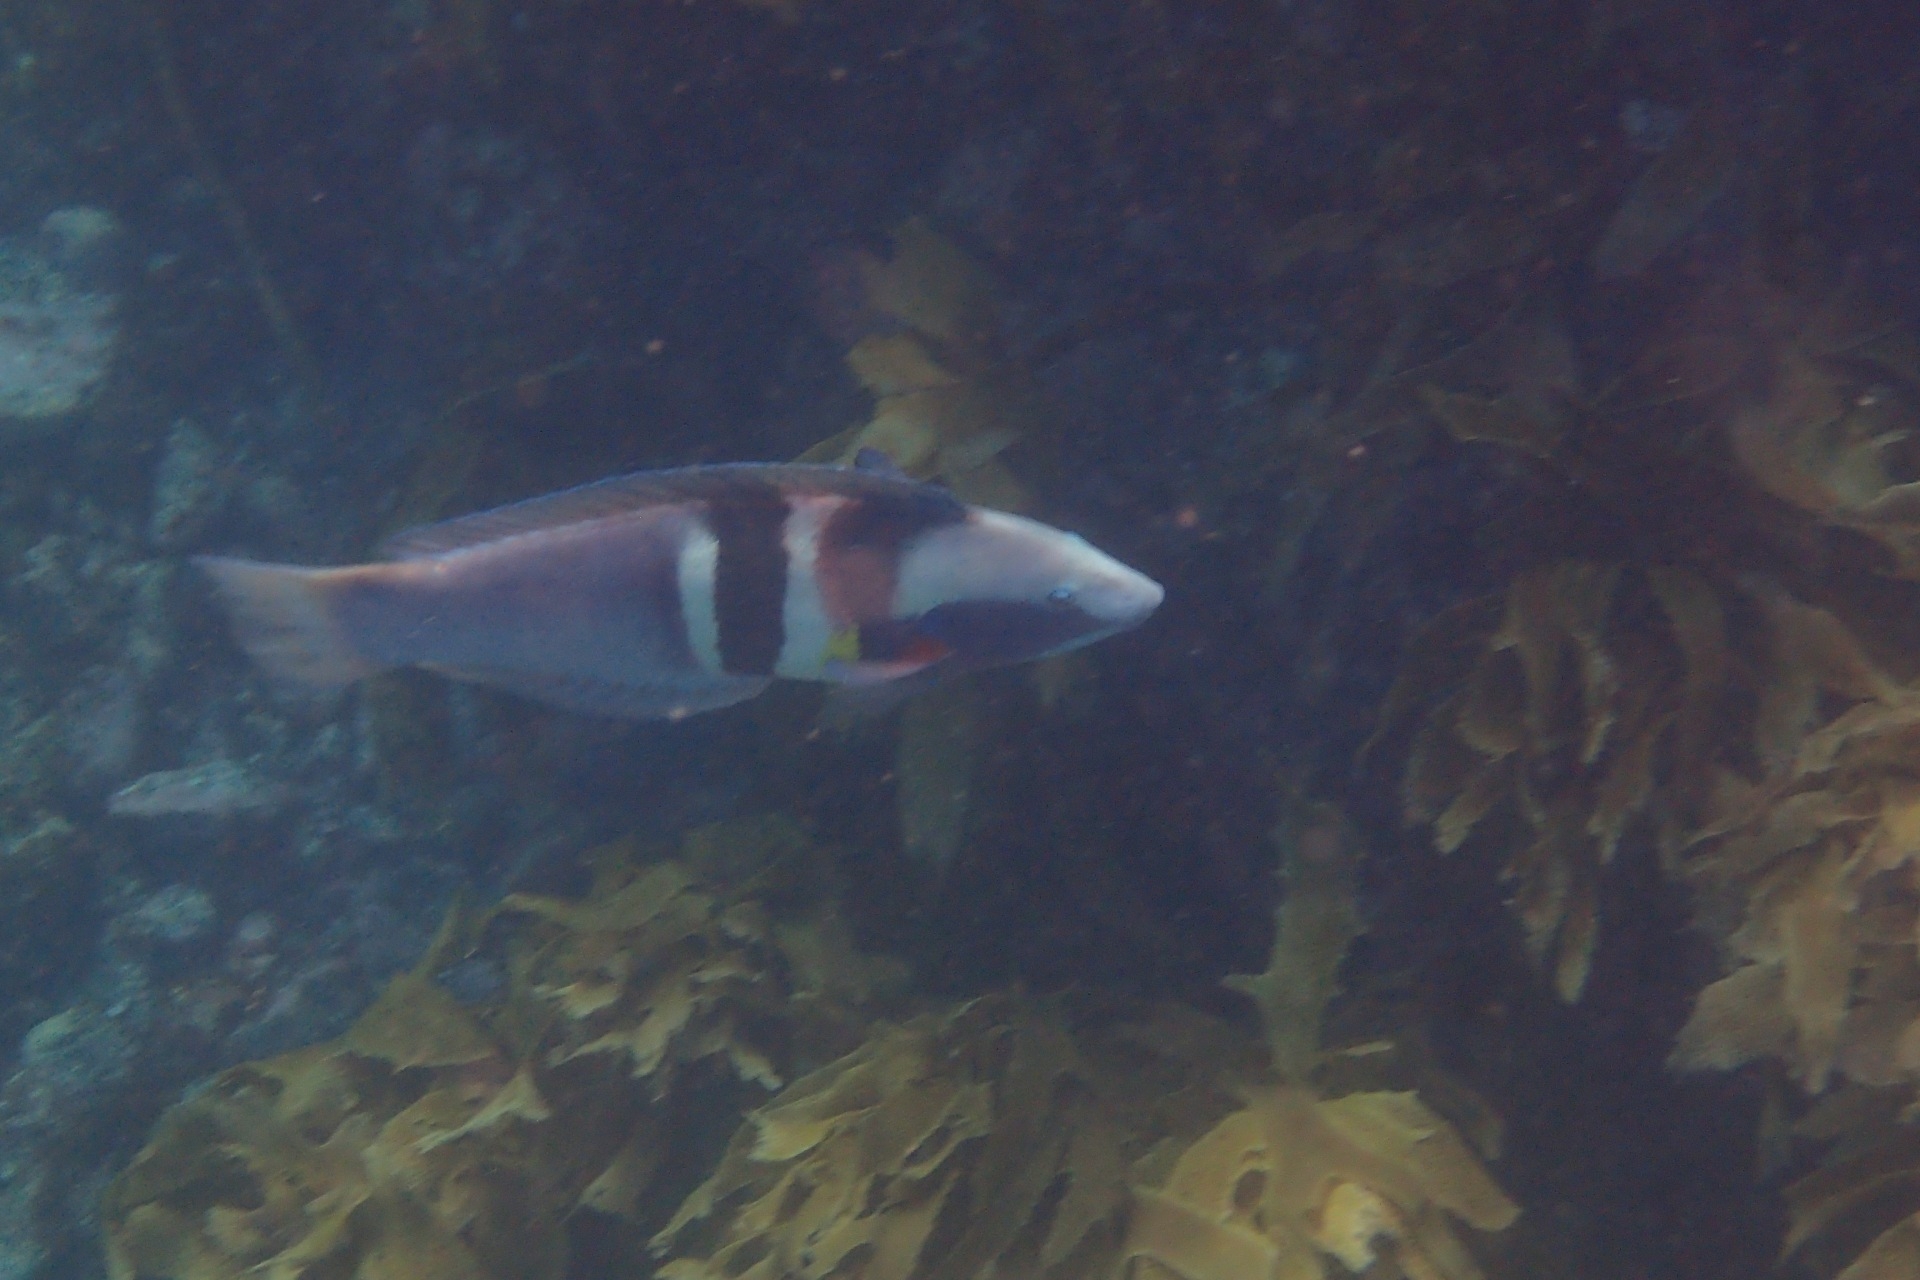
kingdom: Animalia
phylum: Chordata
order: Perciformes
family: Labridae
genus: Coris
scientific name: Coris sandeyeri
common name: Sandager's wrasse
